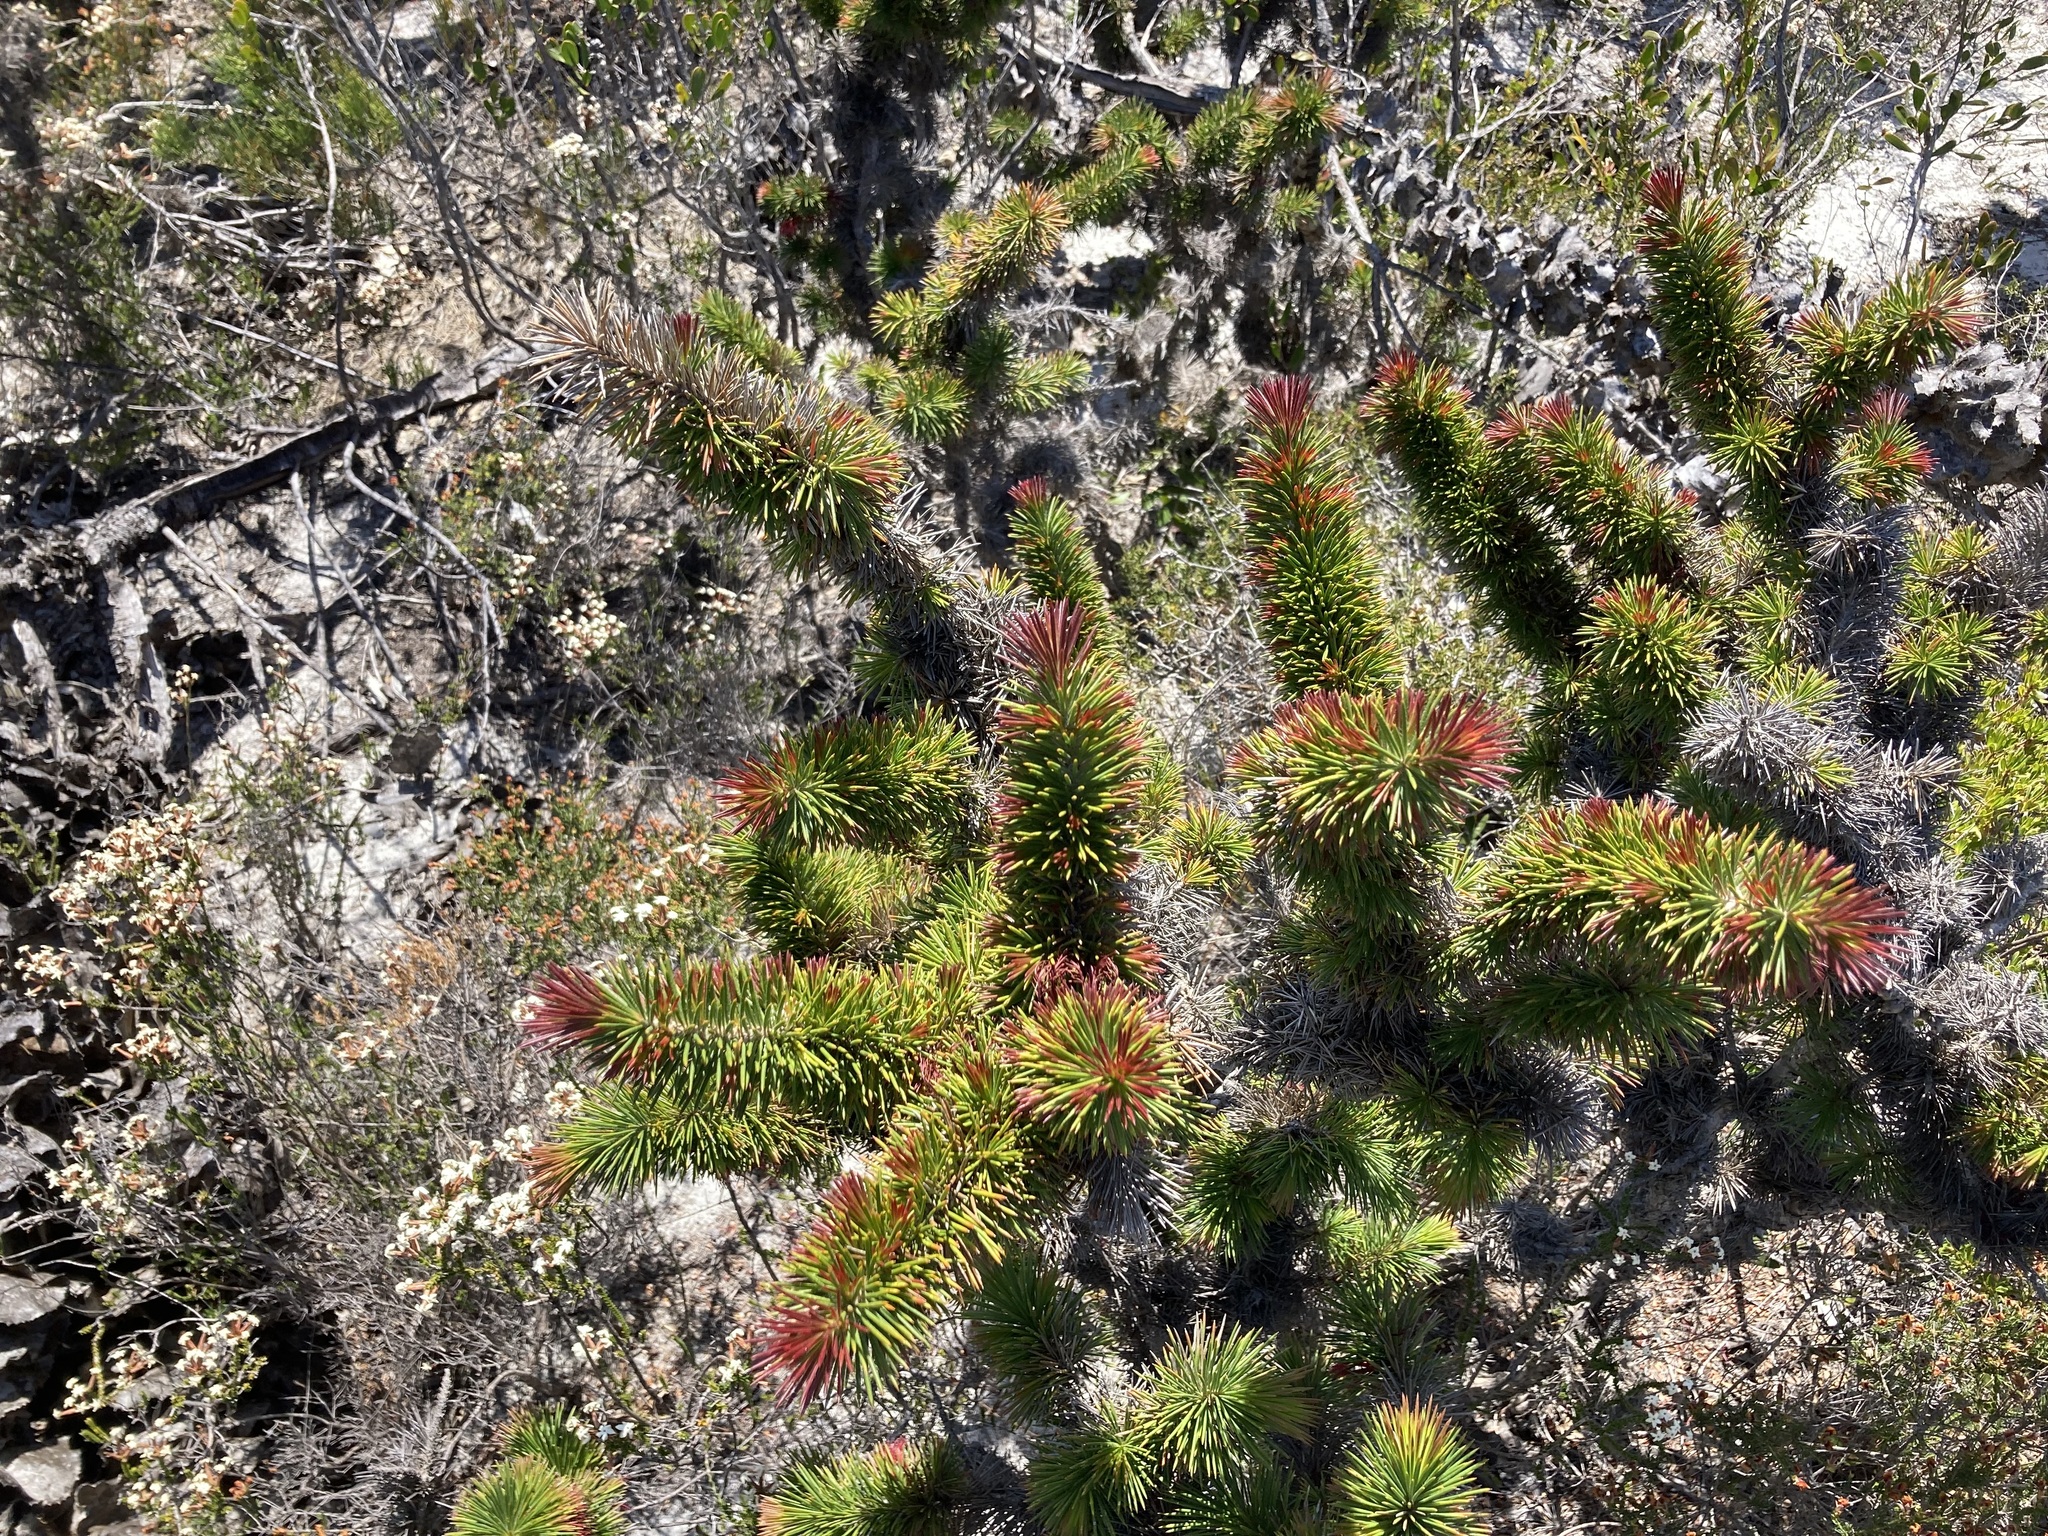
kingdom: Plantae
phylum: Tracheophyta
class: Magnoliopsida
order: Myrtales
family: Myrtaceae
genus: Melaleuca
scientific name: Melaleuca peucophylla
